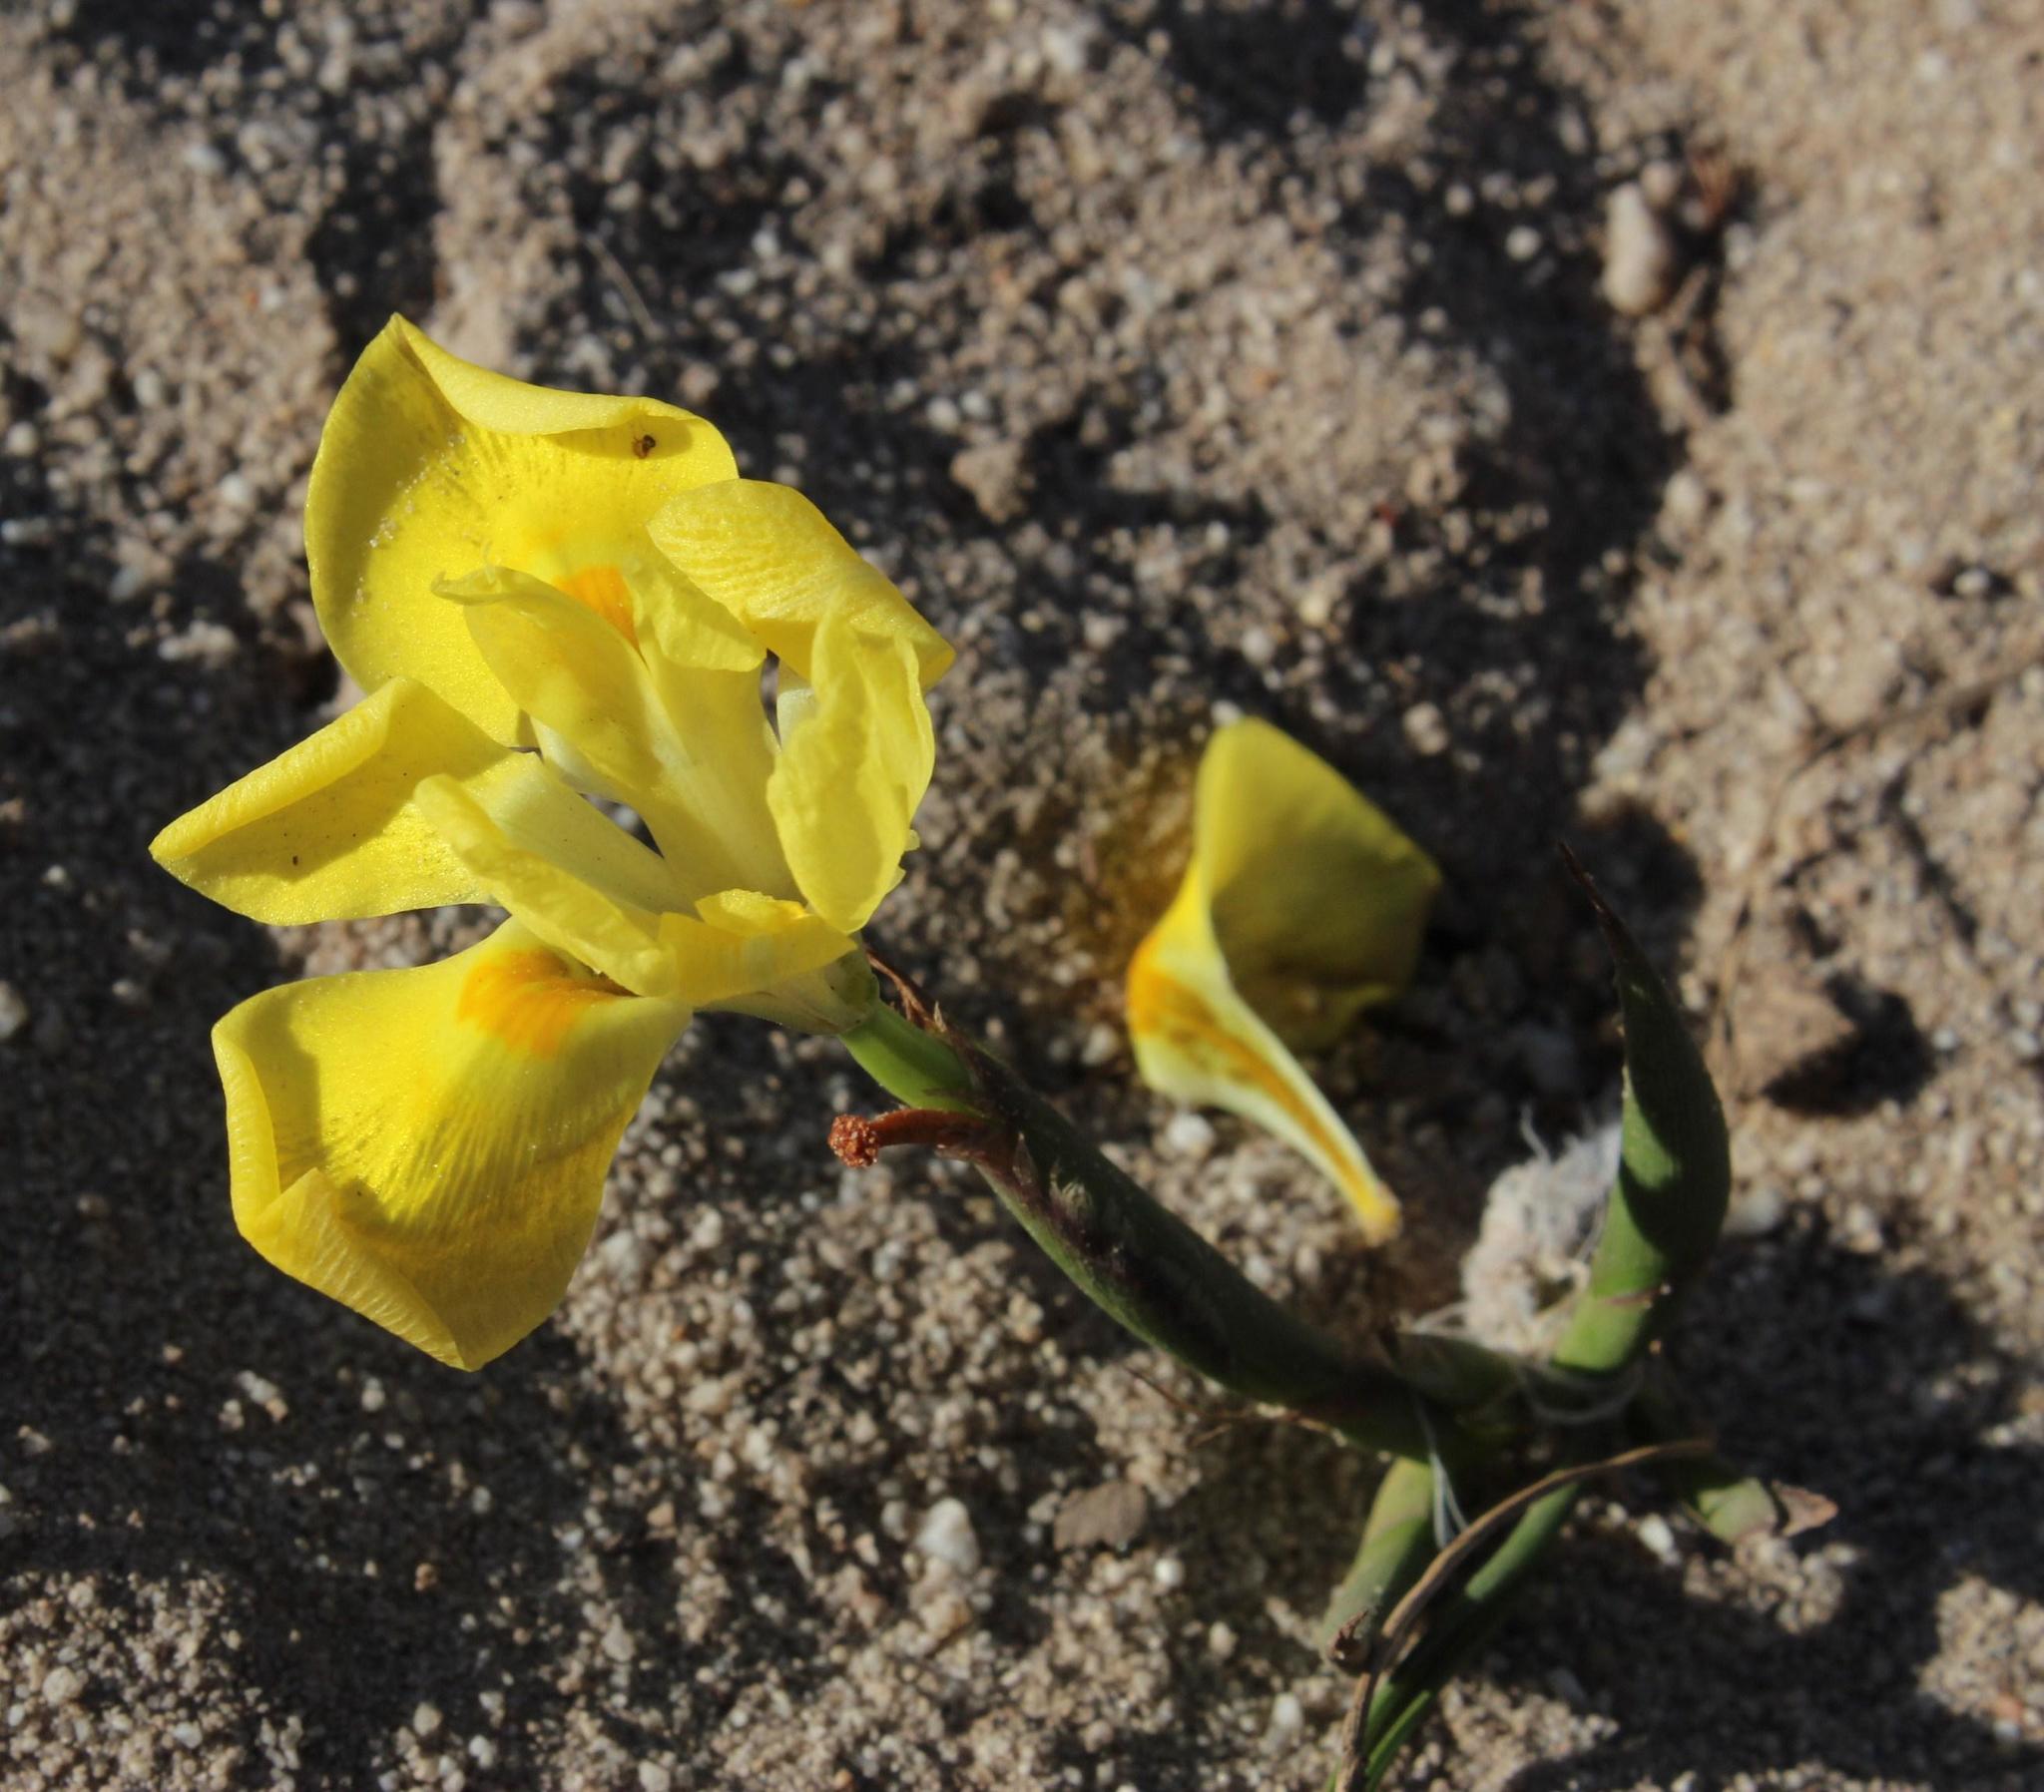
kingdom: Plantae
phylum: Tracheophyta
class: Liliopsida
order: Asparagales
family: Iridaceae
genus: Moraea
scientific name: Moraea fugax
